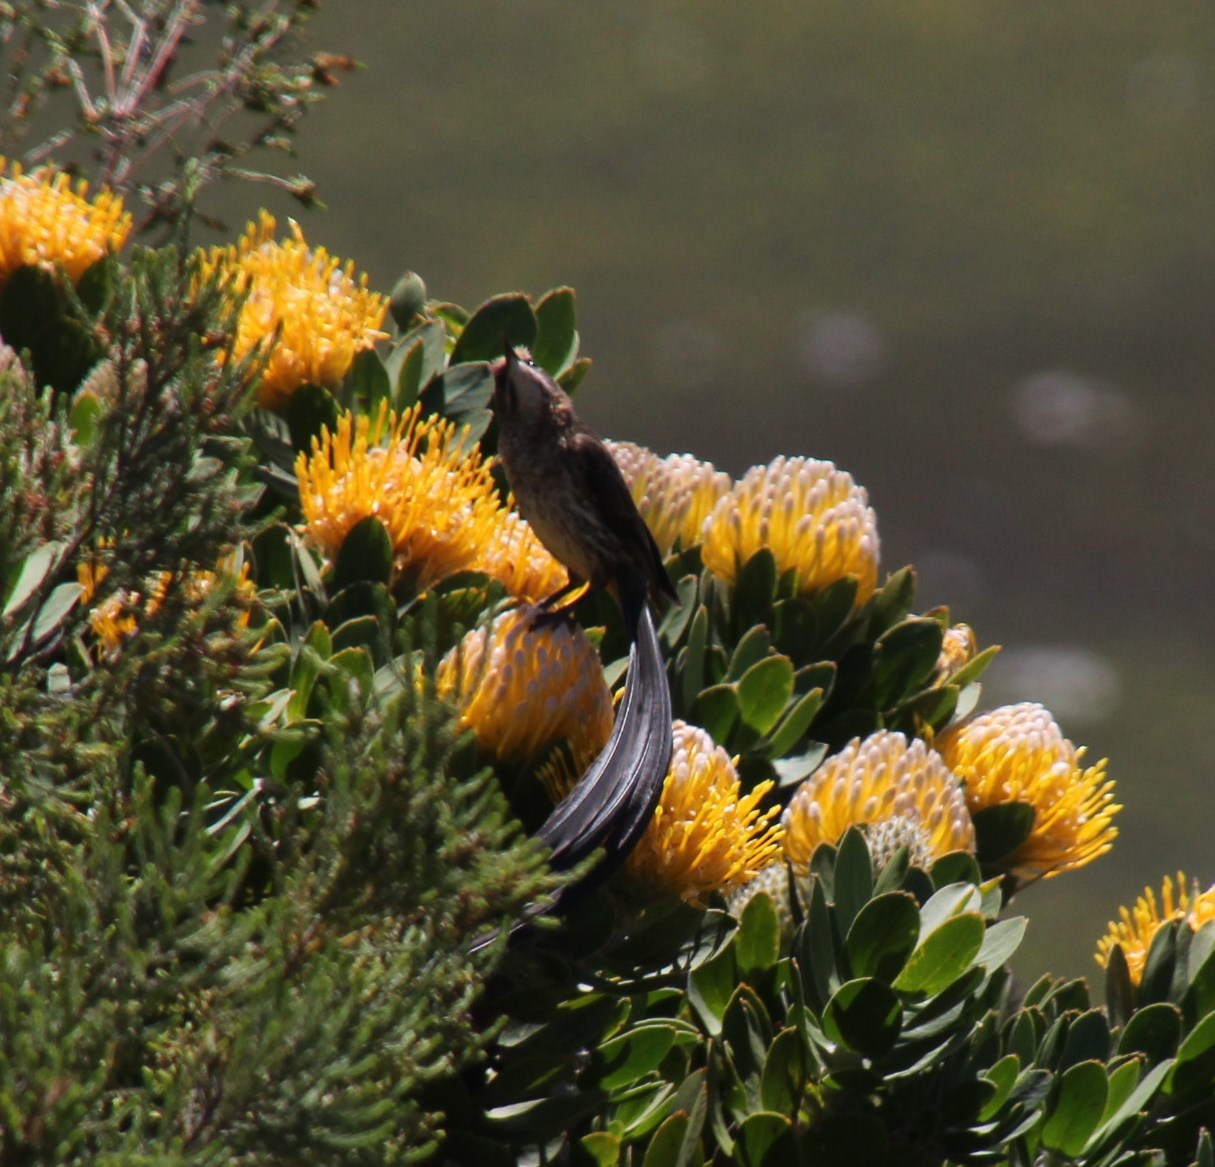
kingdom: Plantae
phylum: Tracheophyta
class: Magnoliopsida
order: Proteales
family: Proteaceae
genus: Leucospermum
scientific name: Leucospermum conocarpodendron
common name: Tree pincushion
